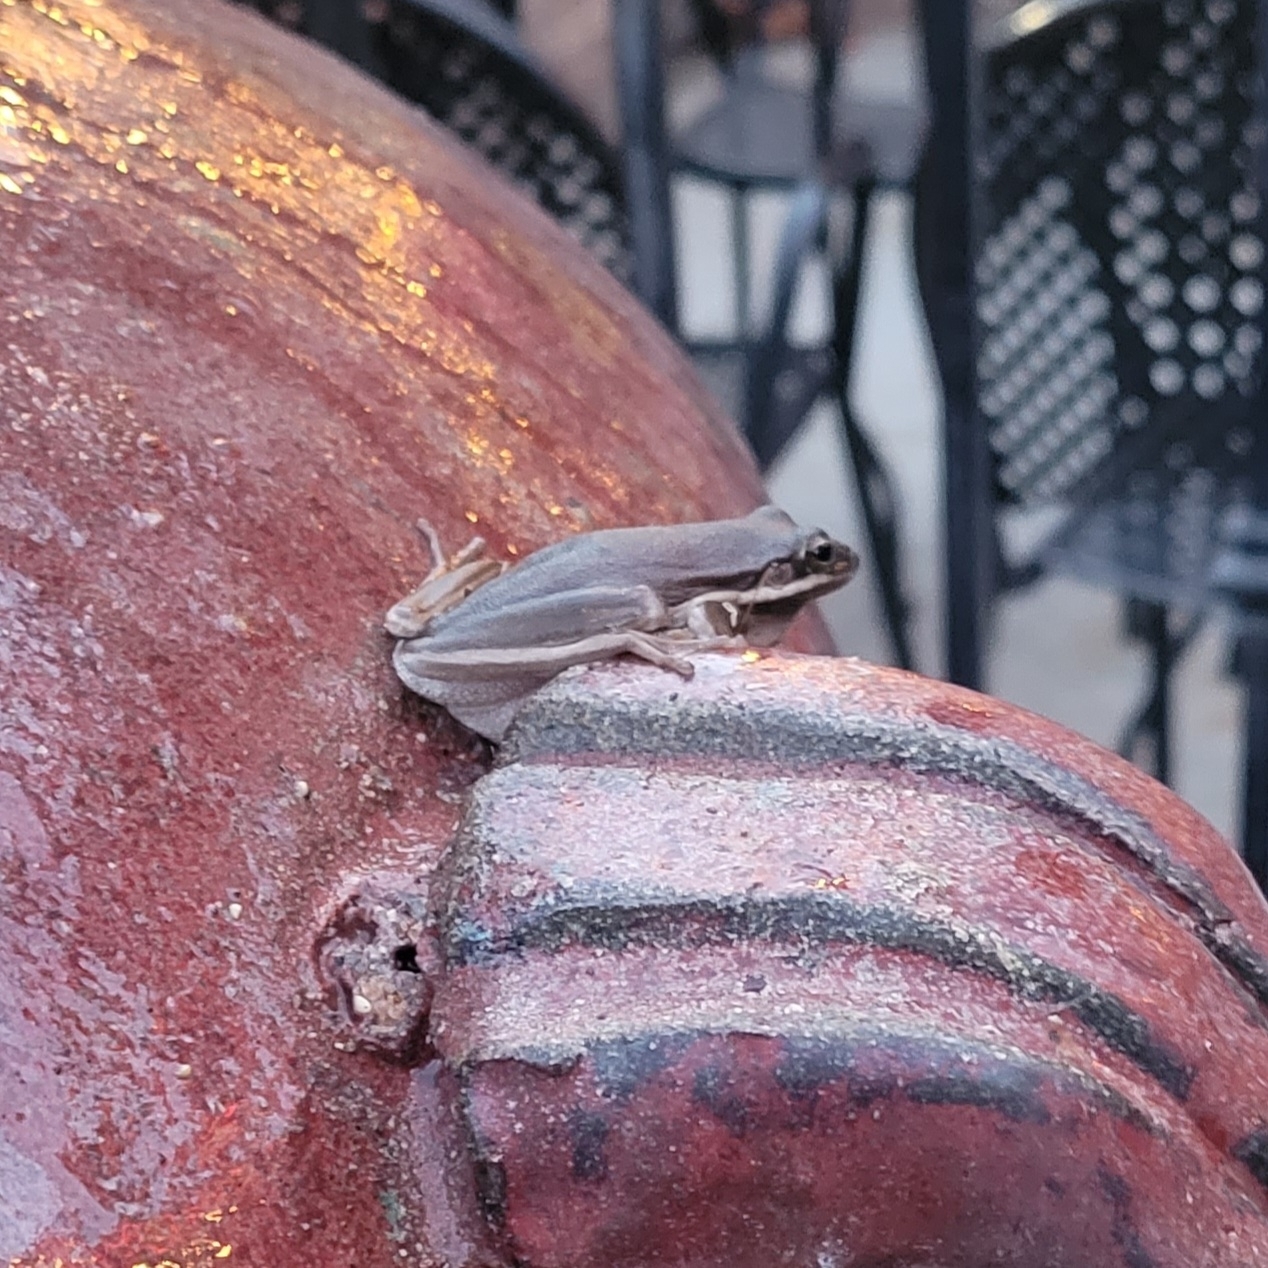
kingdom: Animalia
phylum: Chordata
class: Amphibia
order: Anura
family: Hylidae
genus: Dryophytes
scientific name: Dryophytes cinereus
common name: Green treefrog
